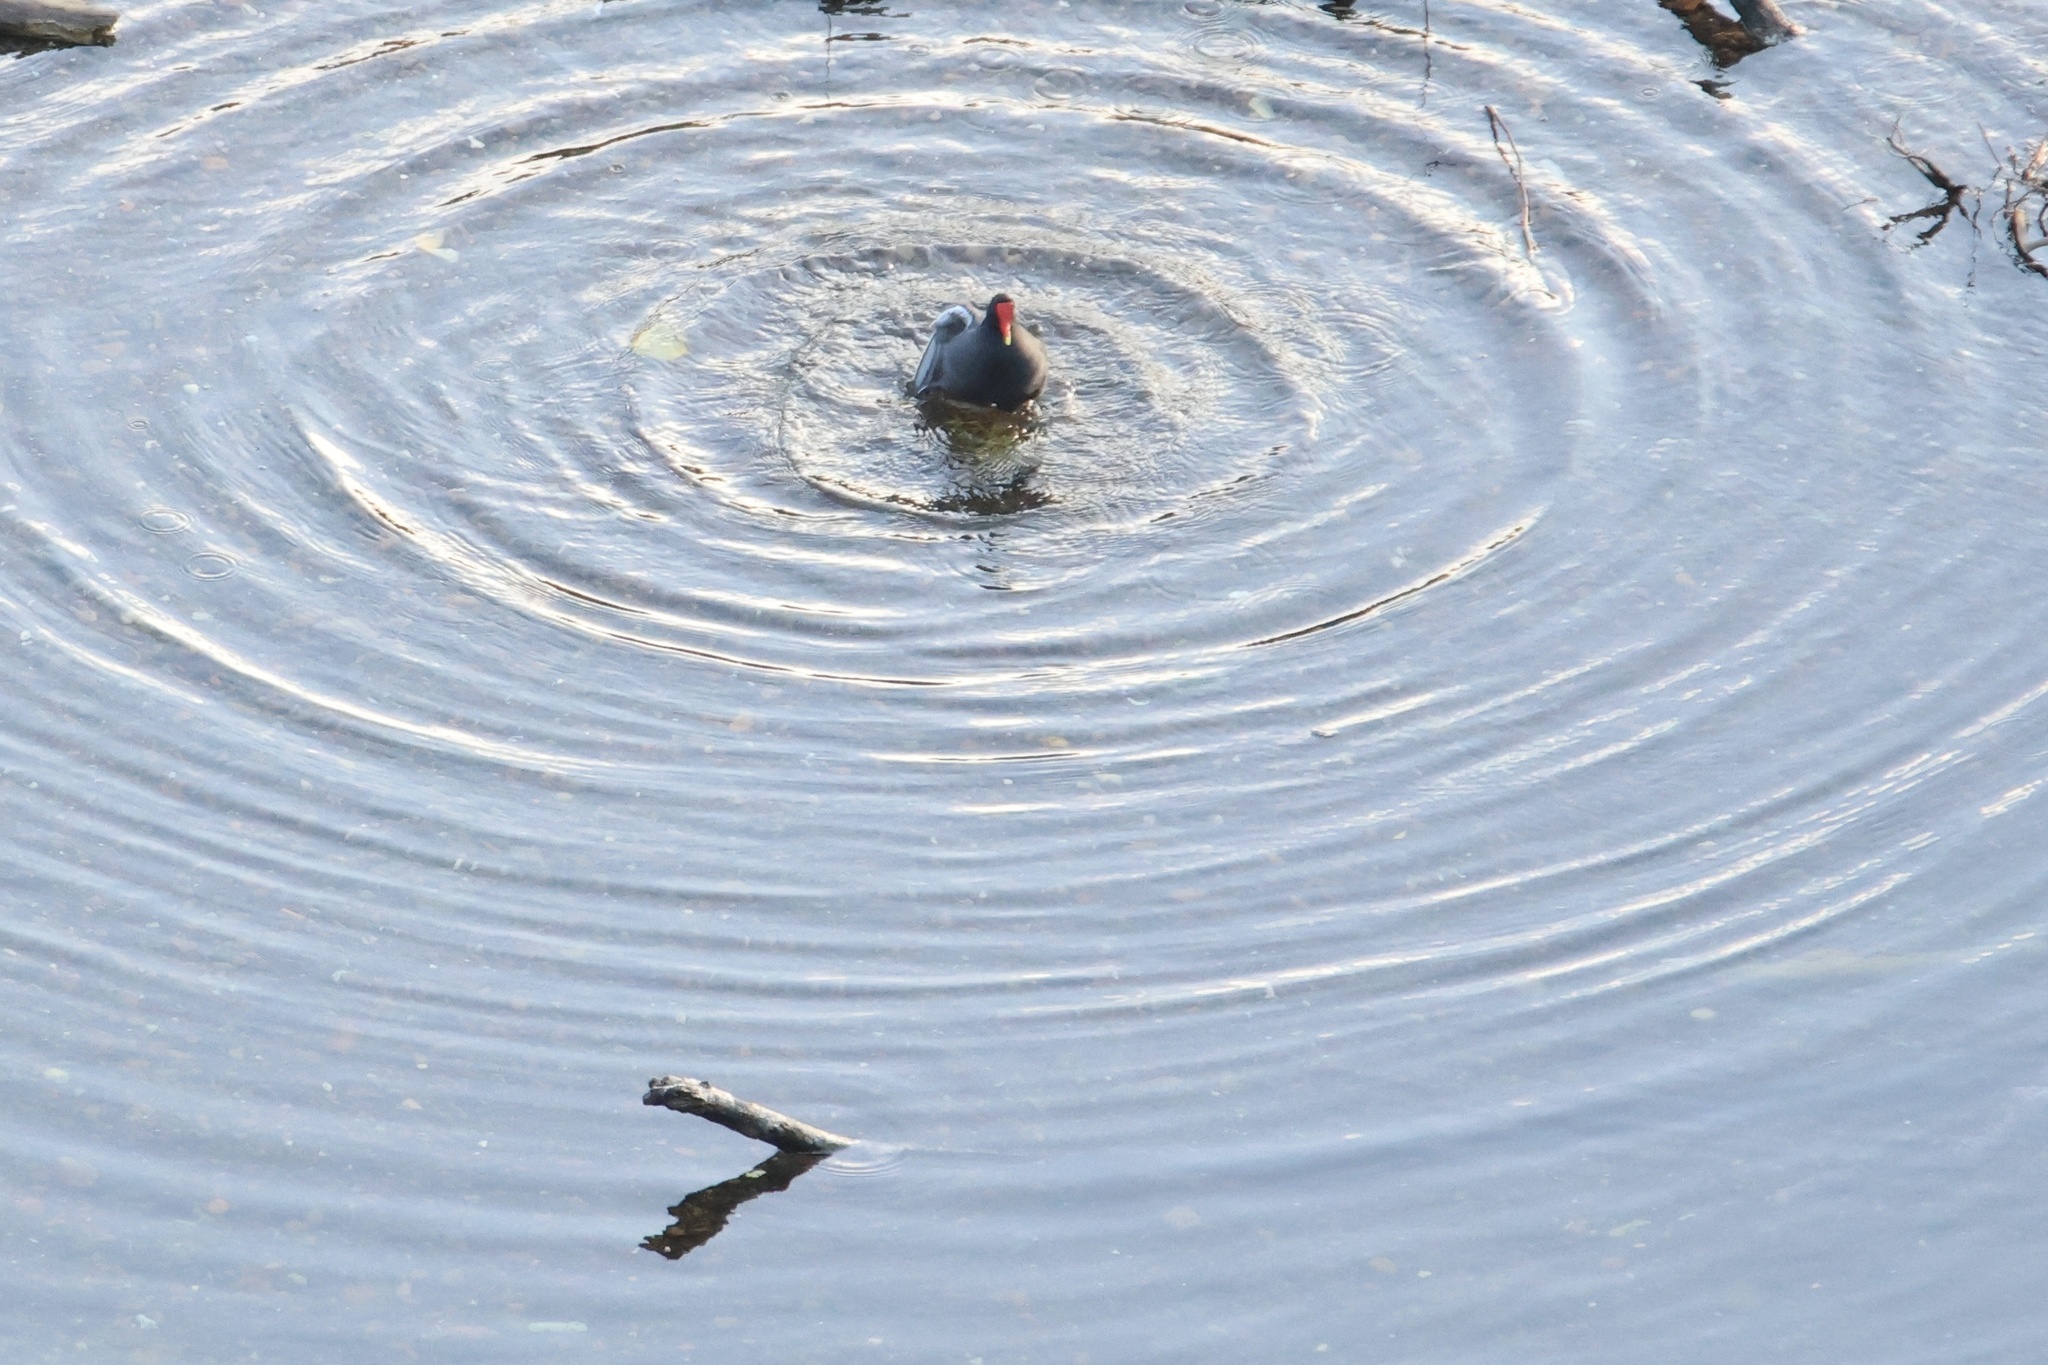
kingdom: Animalia
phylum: Chordata
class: Aves
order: Gruiformes
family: Rallidae
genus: Gallinula
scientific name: Gallinula chloropus
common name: Common moorhen
